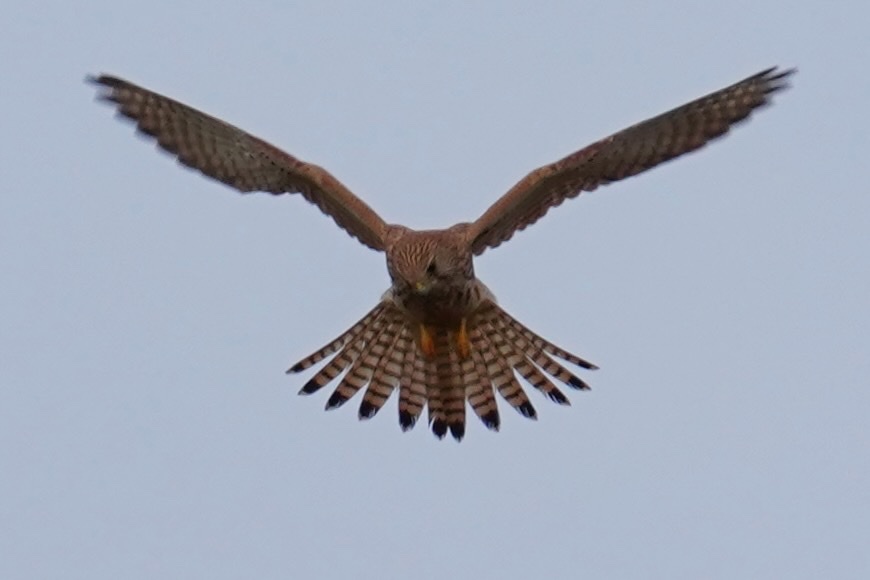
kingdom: Animalia
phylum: Chordata
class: Aves
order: Falconiformes
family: Falconidae
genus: Falco
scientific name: Falco tinnunculus
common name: Common kestrel
